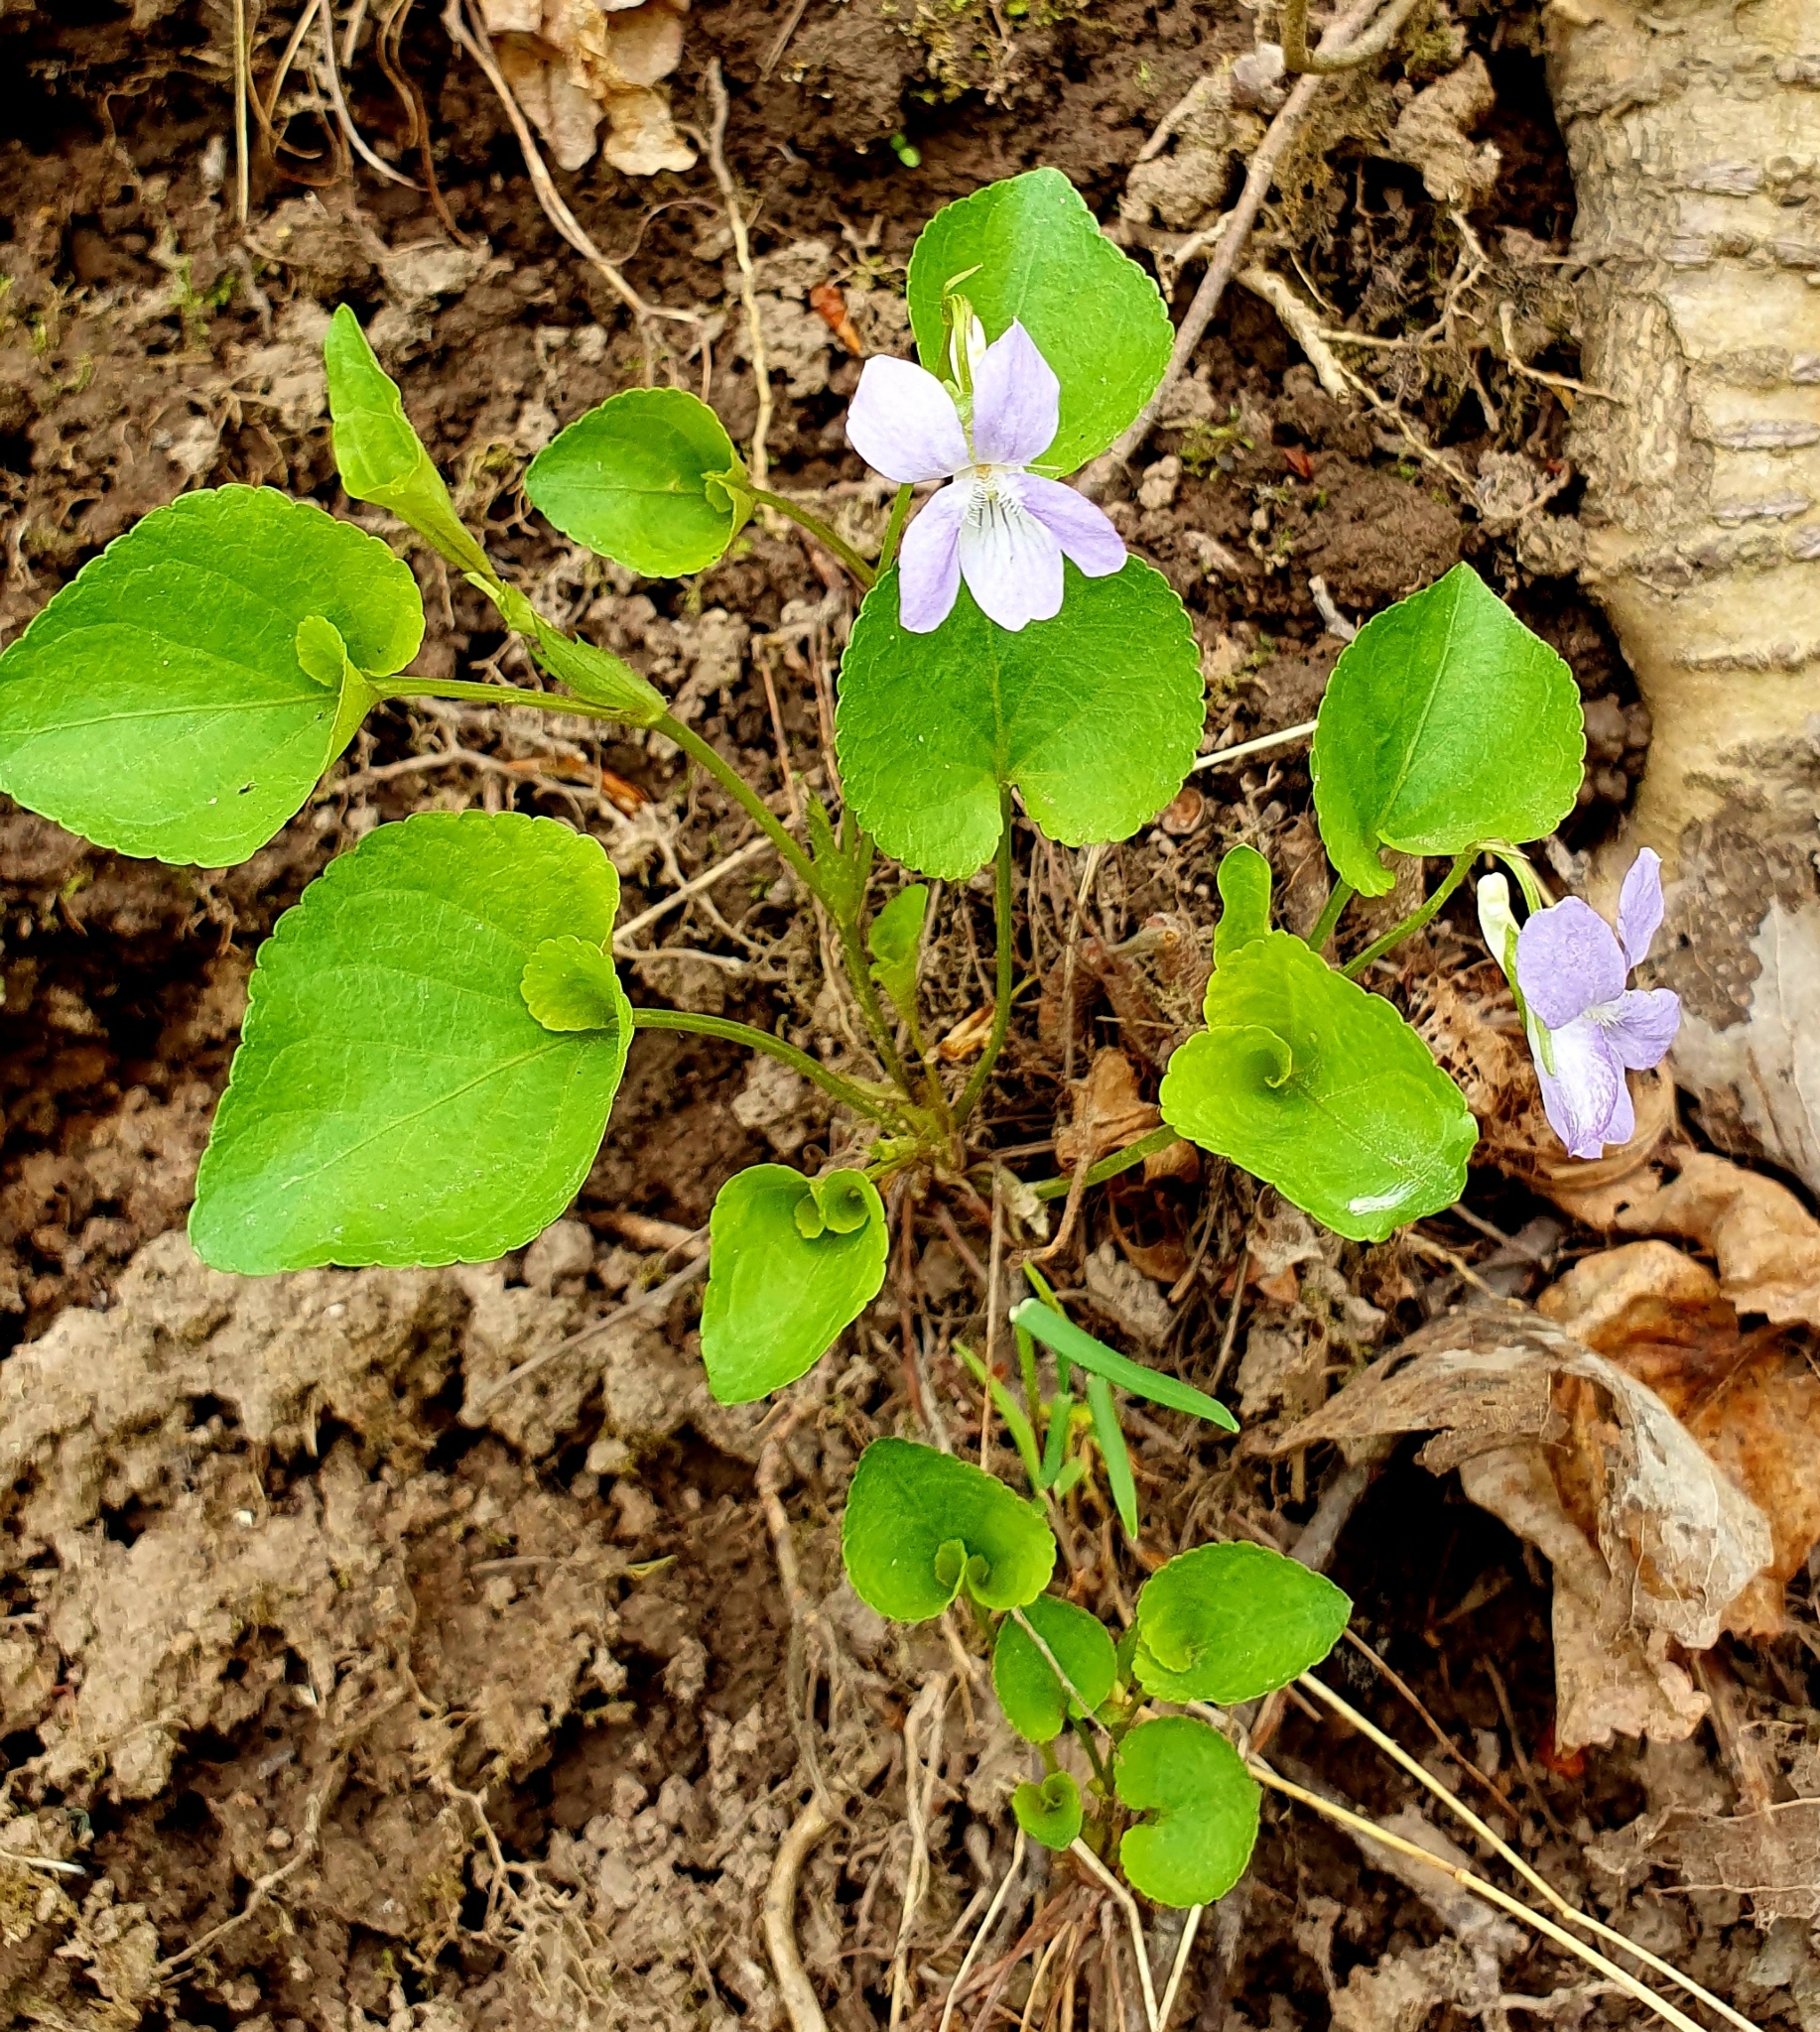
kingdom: Plantae
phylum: Tracheophyta
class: Magnoliopsida
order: Malpighiales
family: Violaceae
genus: Viola
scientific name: Viola mirabilis
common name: Wonder violet
